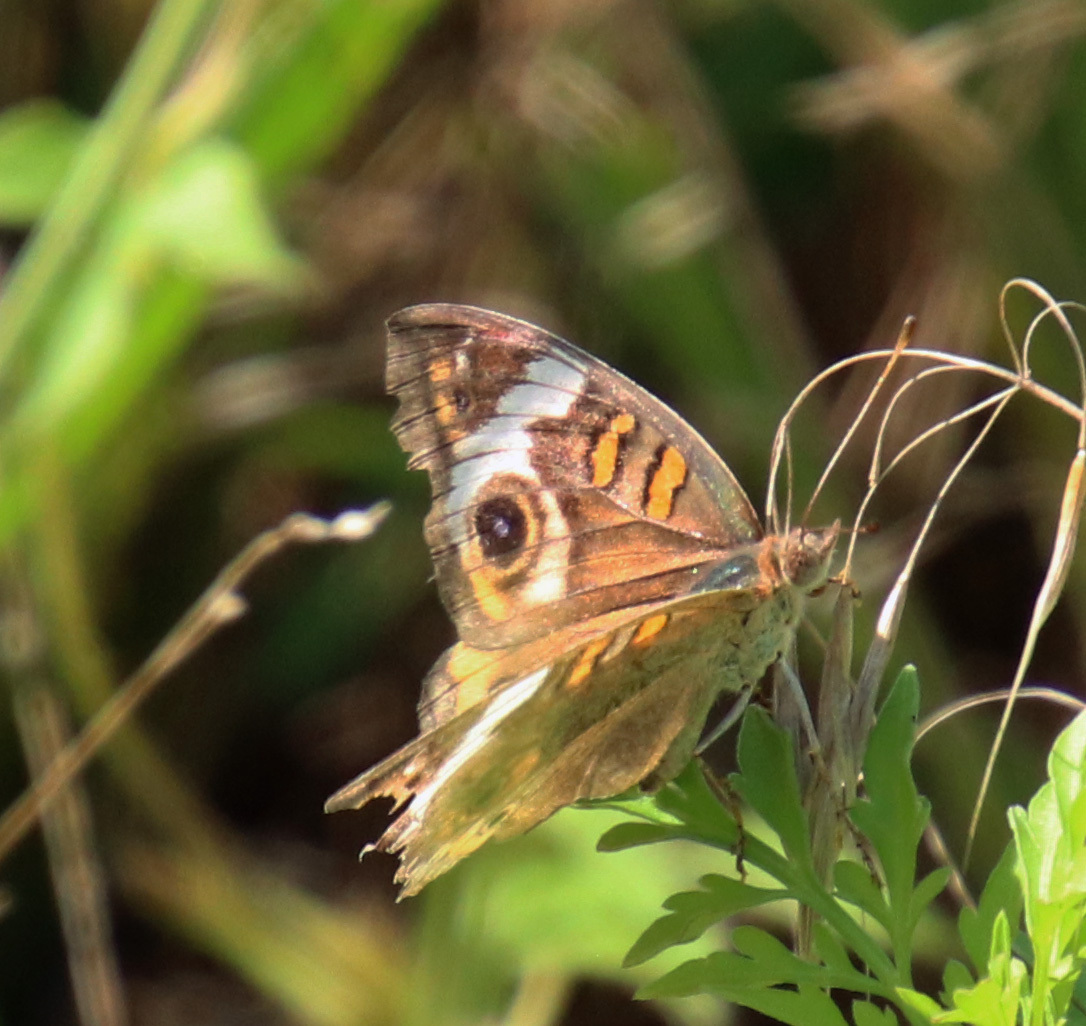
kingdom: Animalia
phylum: Arthropoda
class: Insecta
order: Lepidoptera
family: Nymphalidae
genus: Junonia
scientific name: Junonia coenia
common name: Common buckeye
